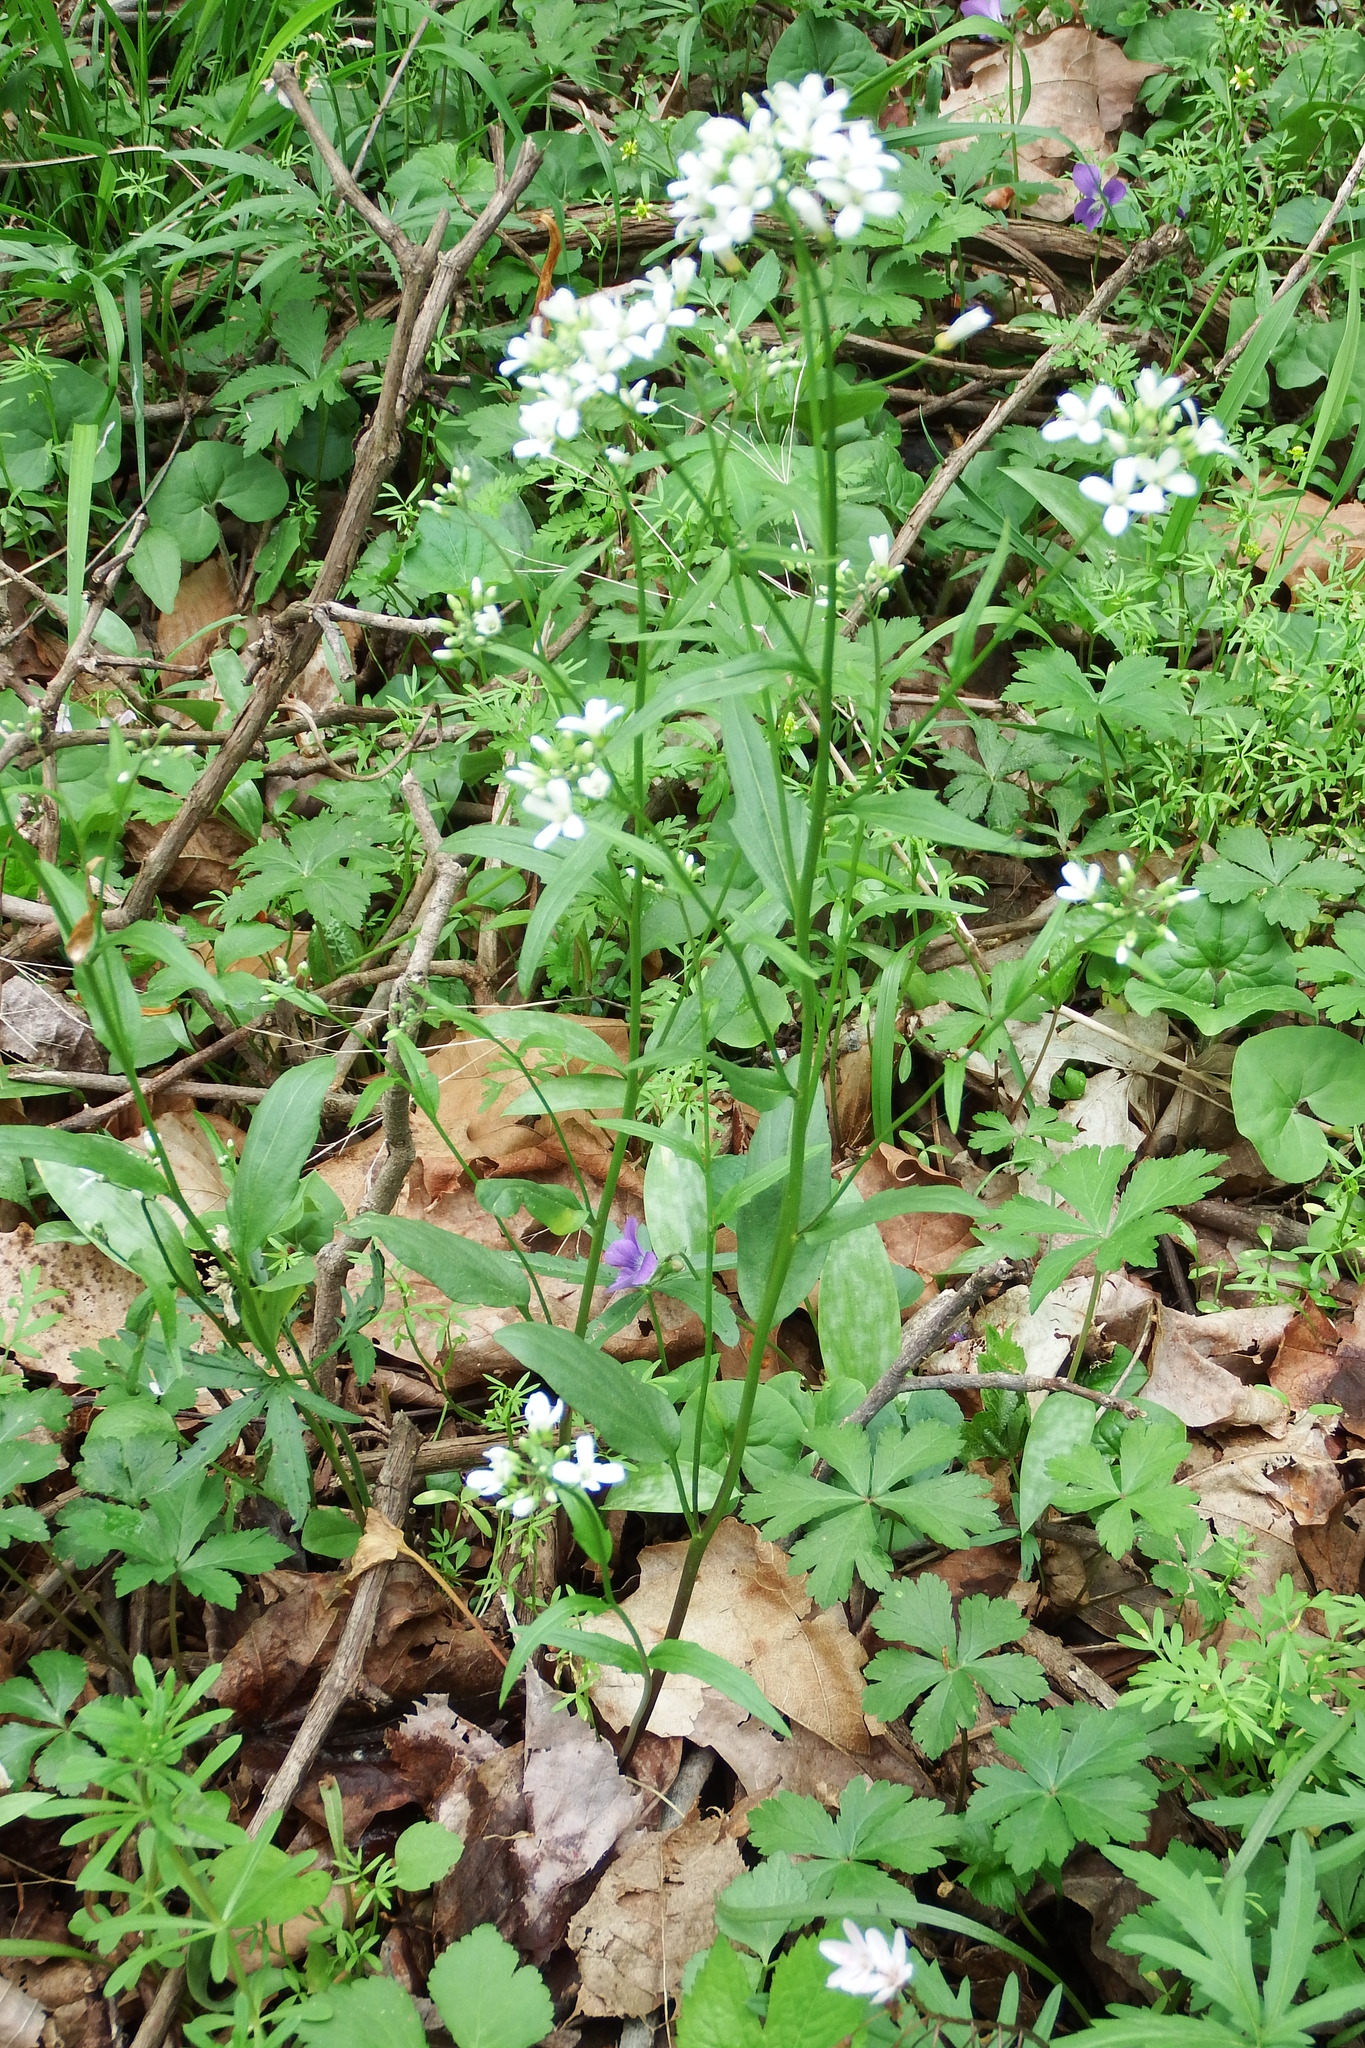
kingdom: Plantae
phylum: Tracheophyta
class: Magnoliopsida
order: Brassicales
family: Brassicaceae
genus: Cardamine
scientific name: Cardamine bulbosa
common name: Spring cress
